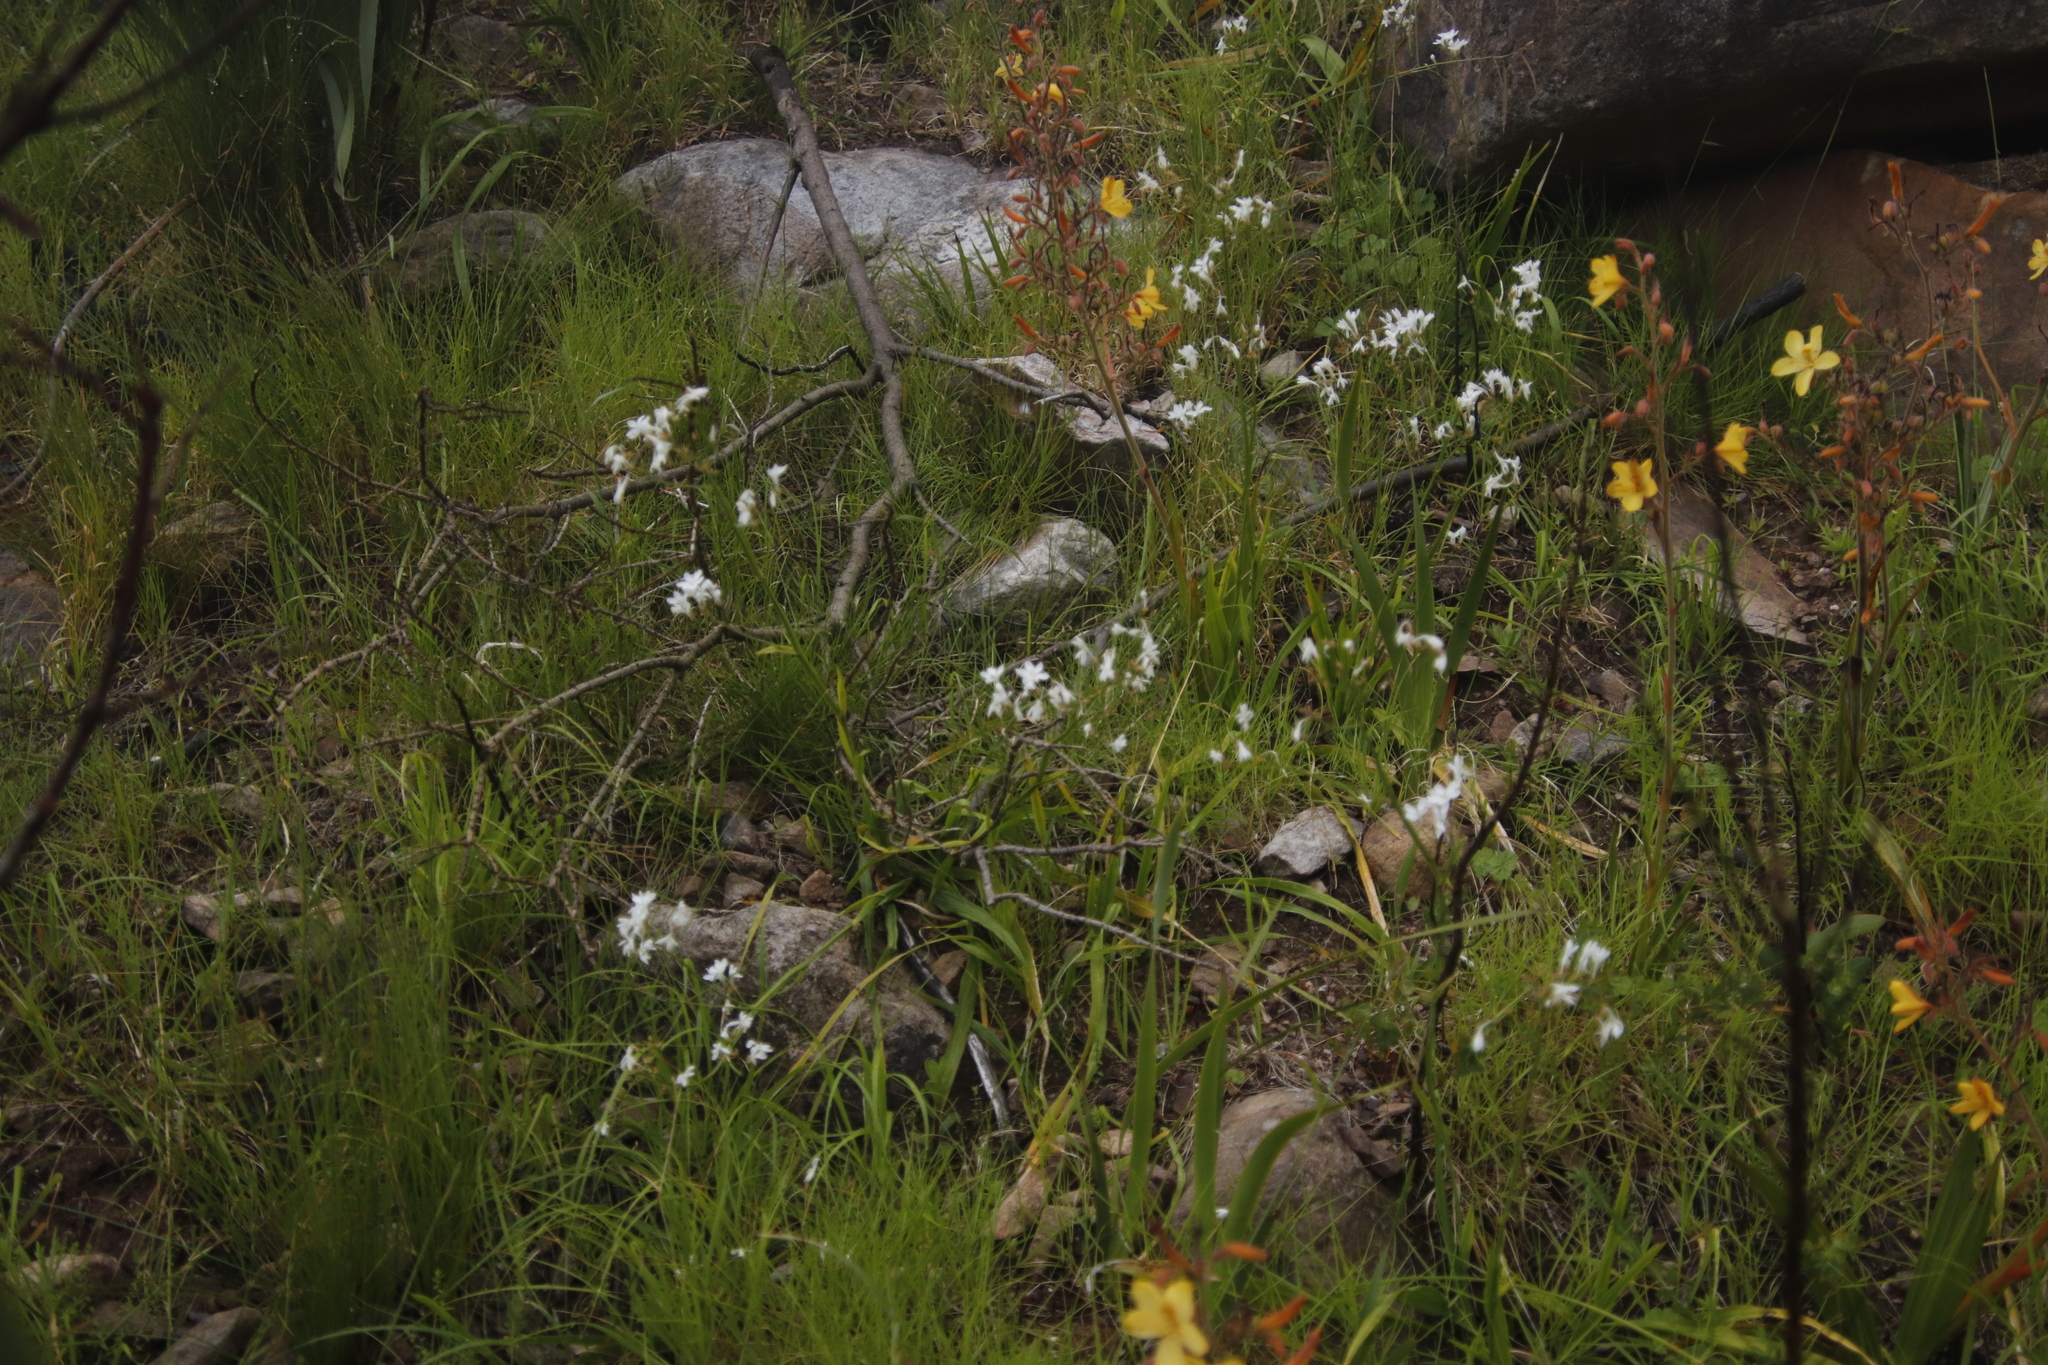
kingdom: Plantae
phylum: Tracheophyta
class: Liliopsida
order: Asparagales
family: Iridaceae
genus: Schizorhiza
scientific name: Schizorhiza neglecta
